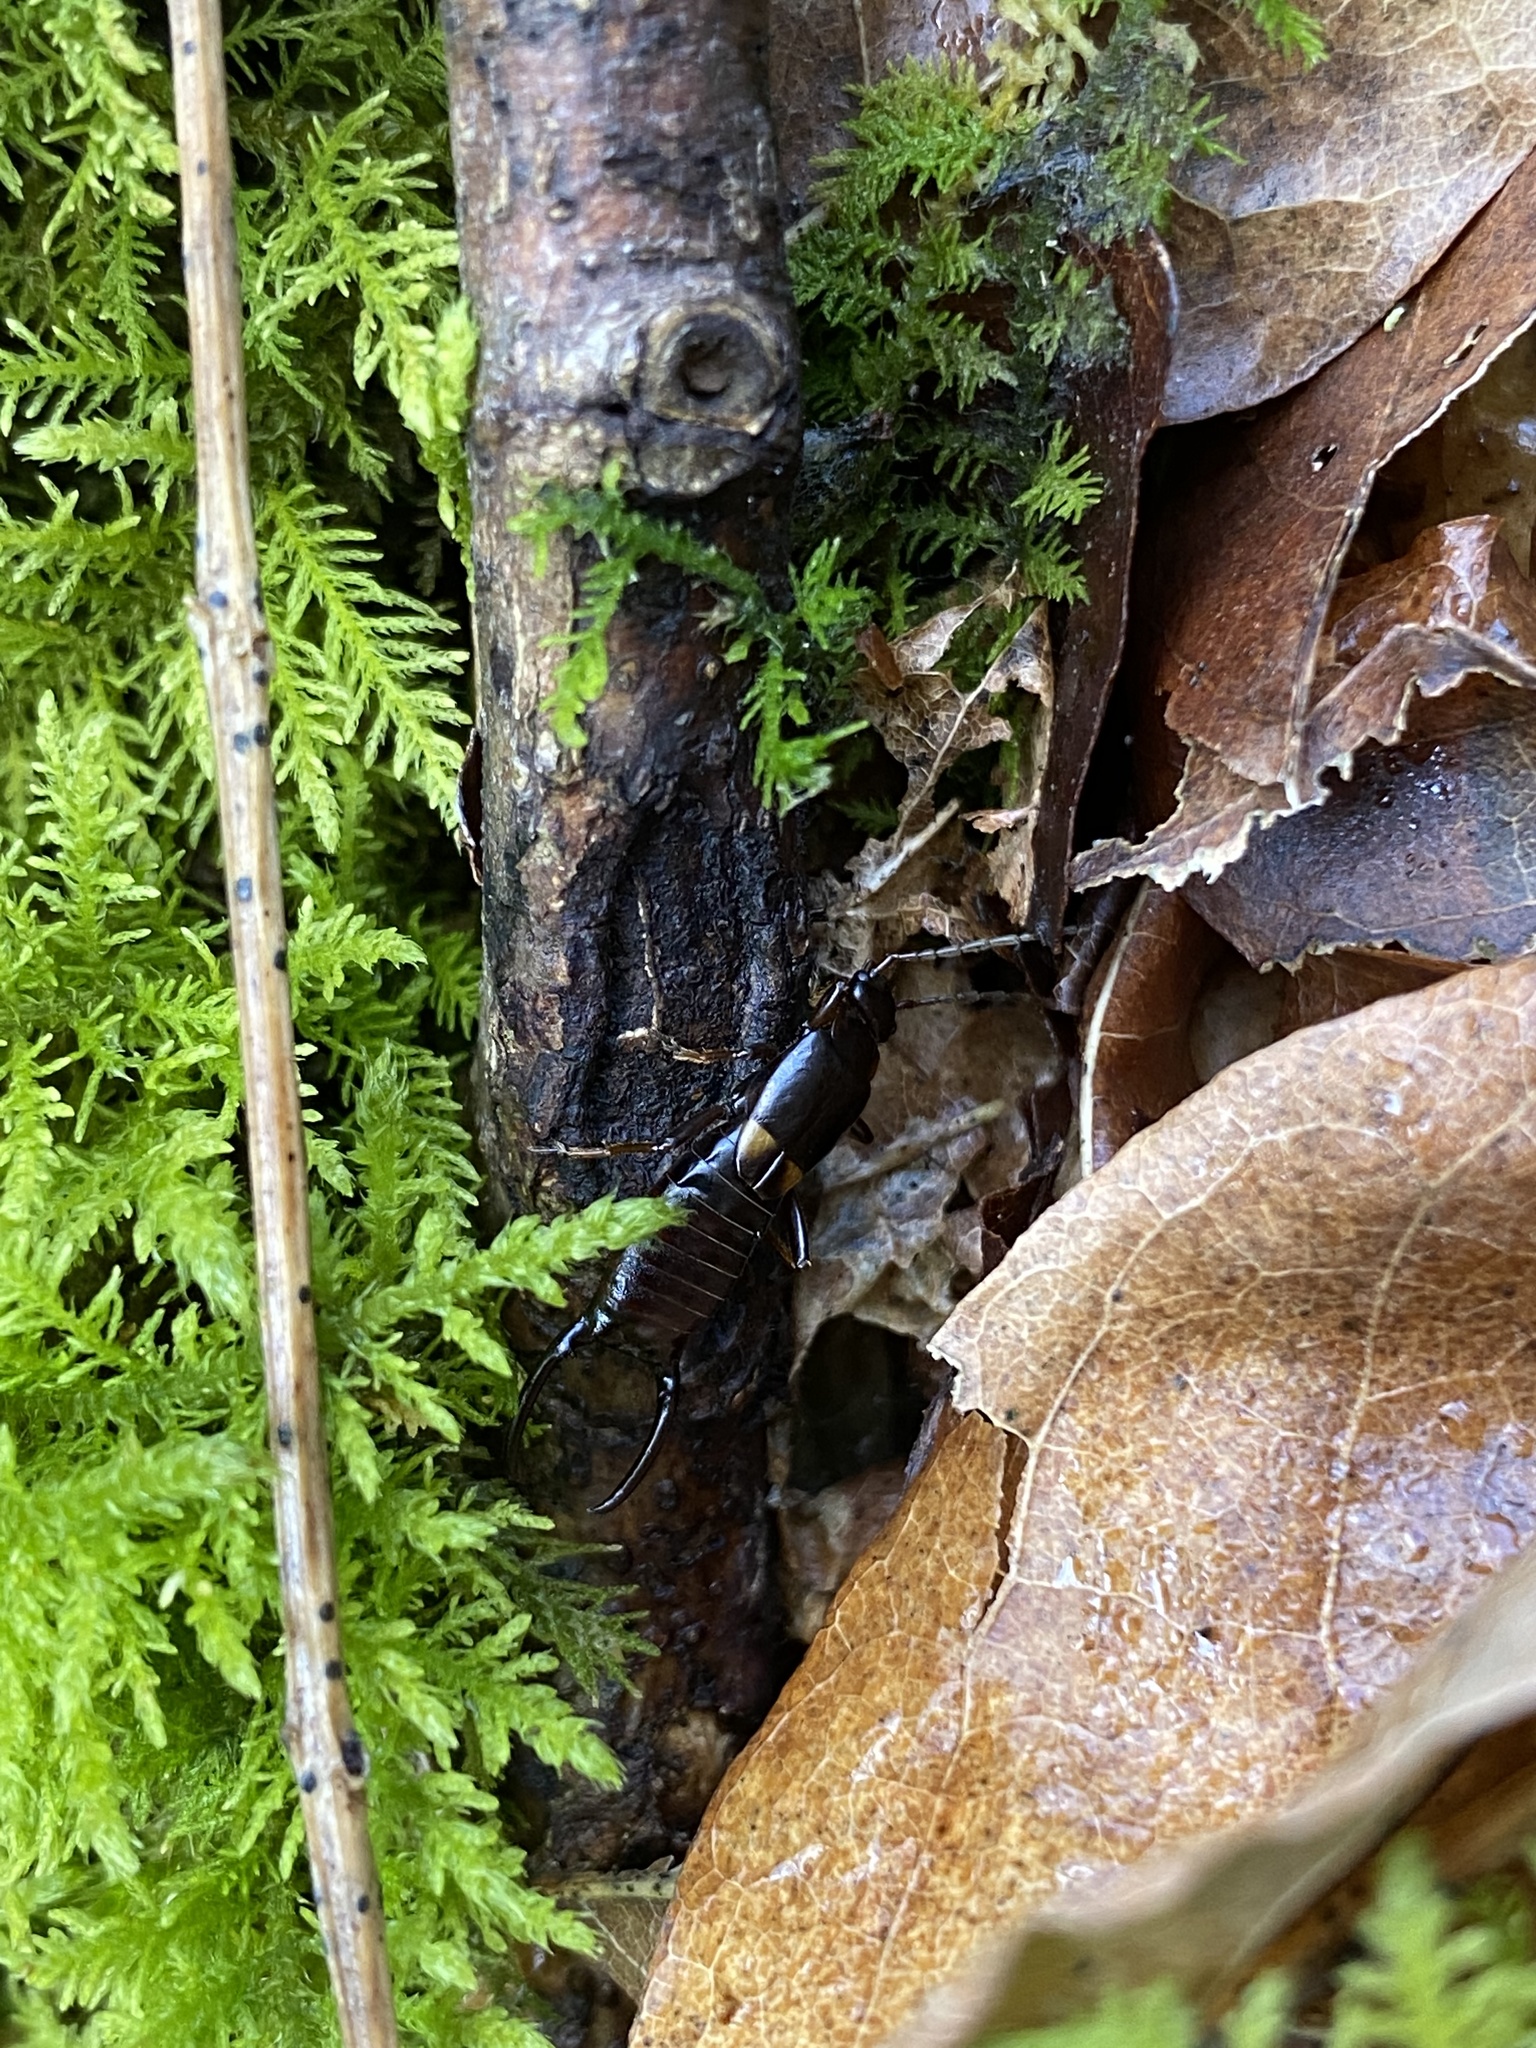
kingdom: Animalia
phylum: Arthropoda
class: Insecta
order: Dermaptera
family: Forficulidae
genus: Anechura
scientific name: Anechura harmandi
